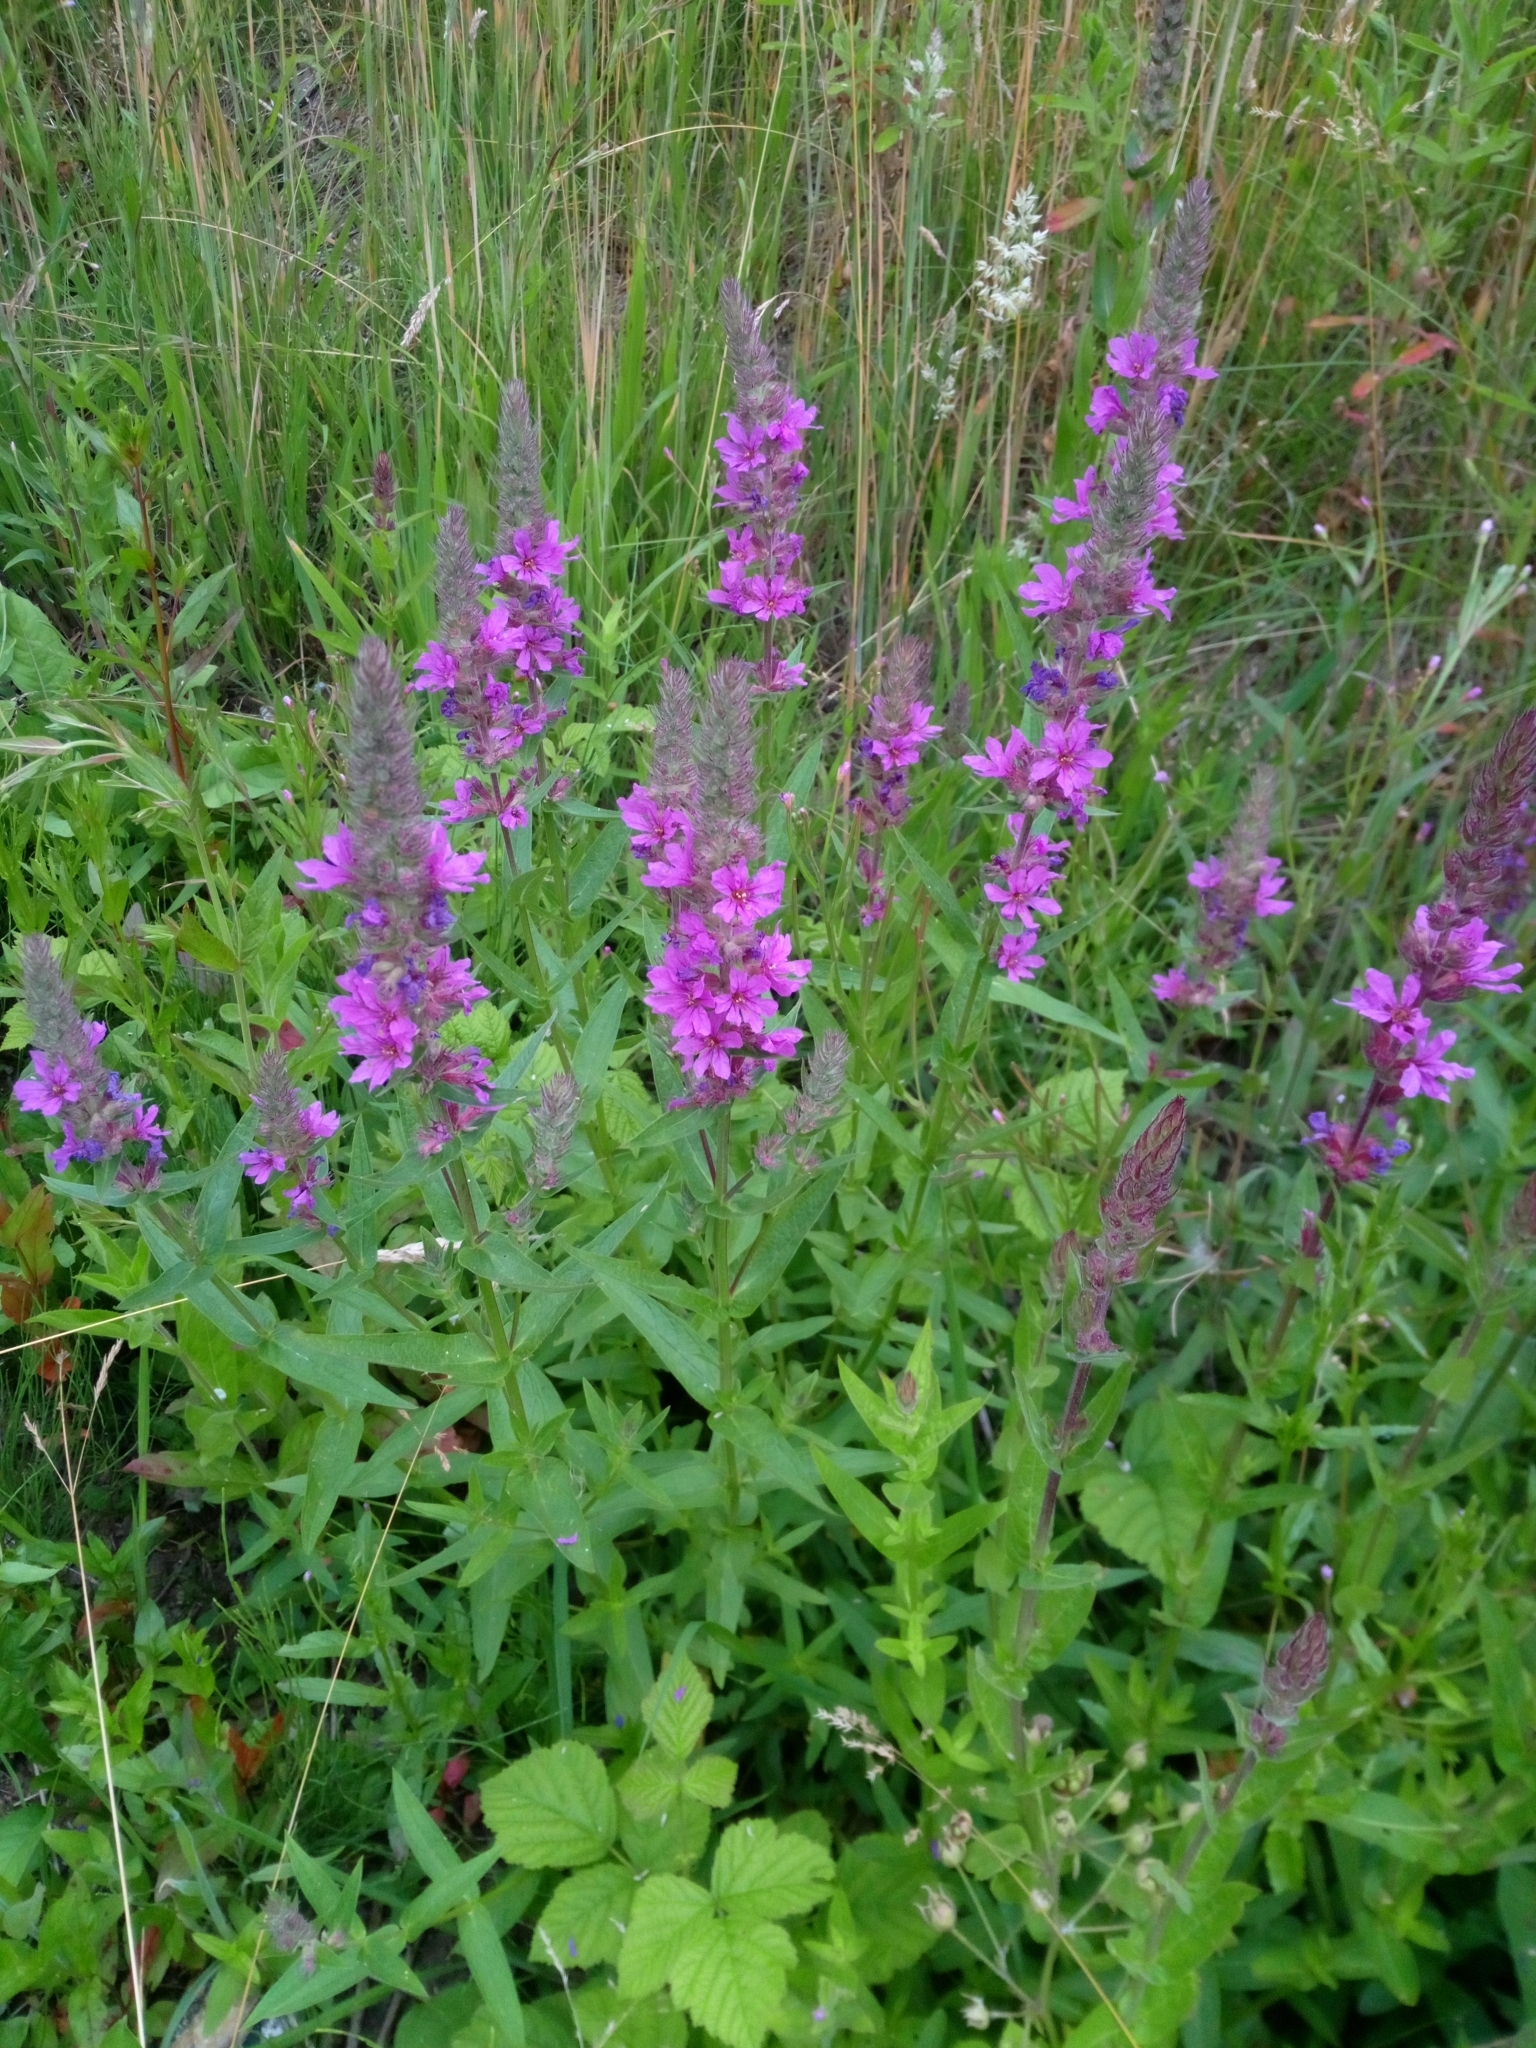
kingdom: Plantae
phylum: Tracheophyta
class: Magnoliopsida
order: Myrtales
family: Lythraceae
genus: Lythrum
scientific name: Lythrum salicaria
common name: Purple loosestrife
